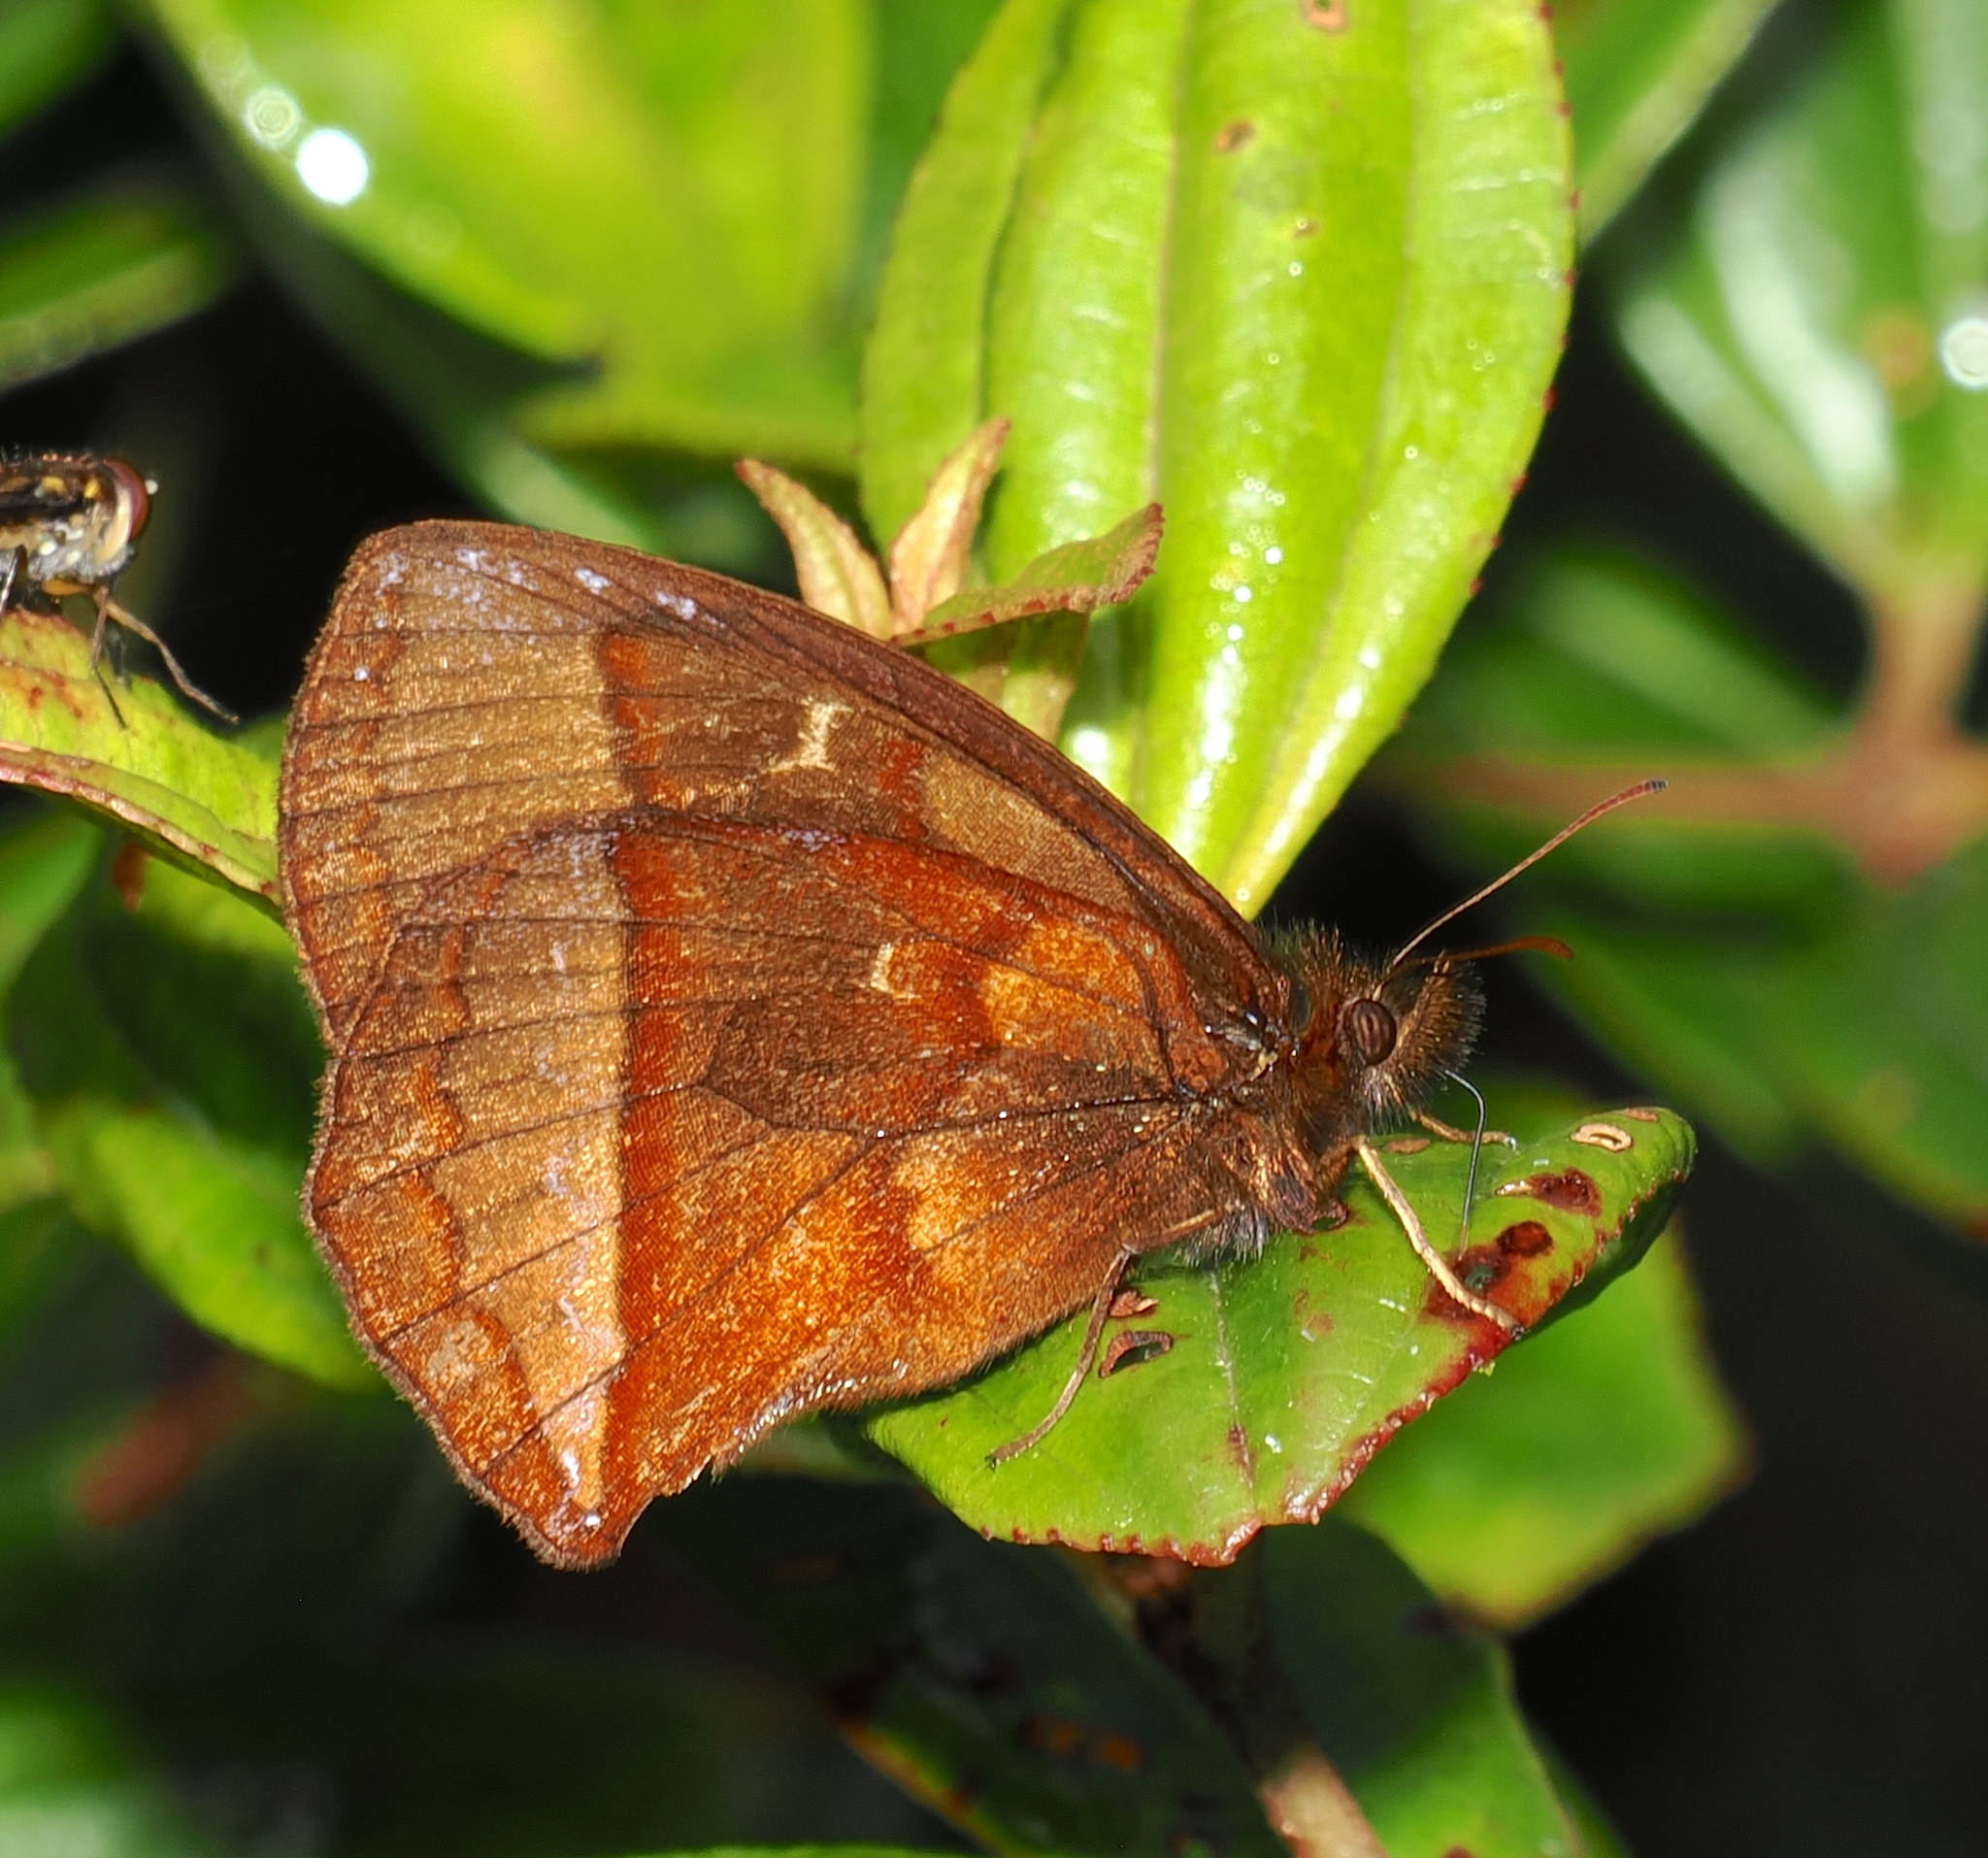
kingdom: Animalia
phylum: Arthropoda
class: Insecta
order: Lepidoptera
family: Nymphalidae
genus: Eretris
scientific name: Eretris
